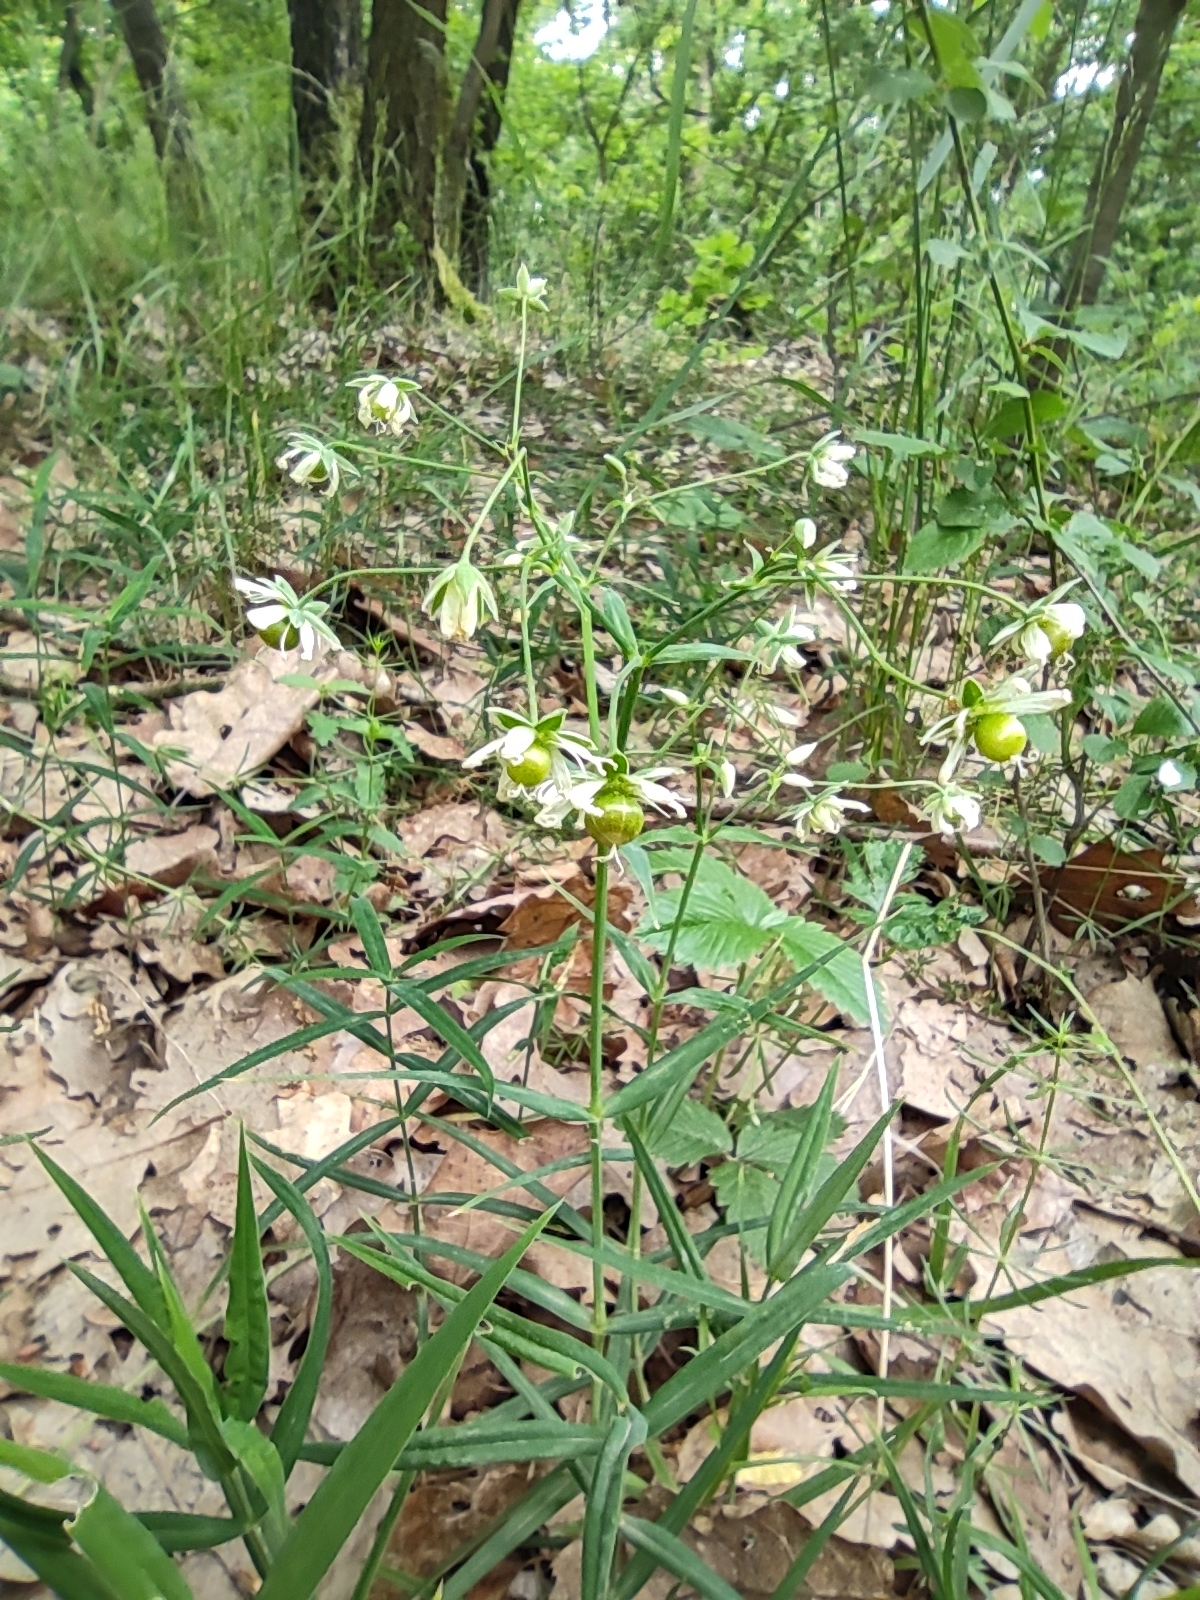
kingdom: Plantae
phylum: Tracheophyta
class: Magnoliopsida
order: Caryophyllales
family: Caryophyllaceae
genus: Rabelera
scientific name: Rabelera holostea
